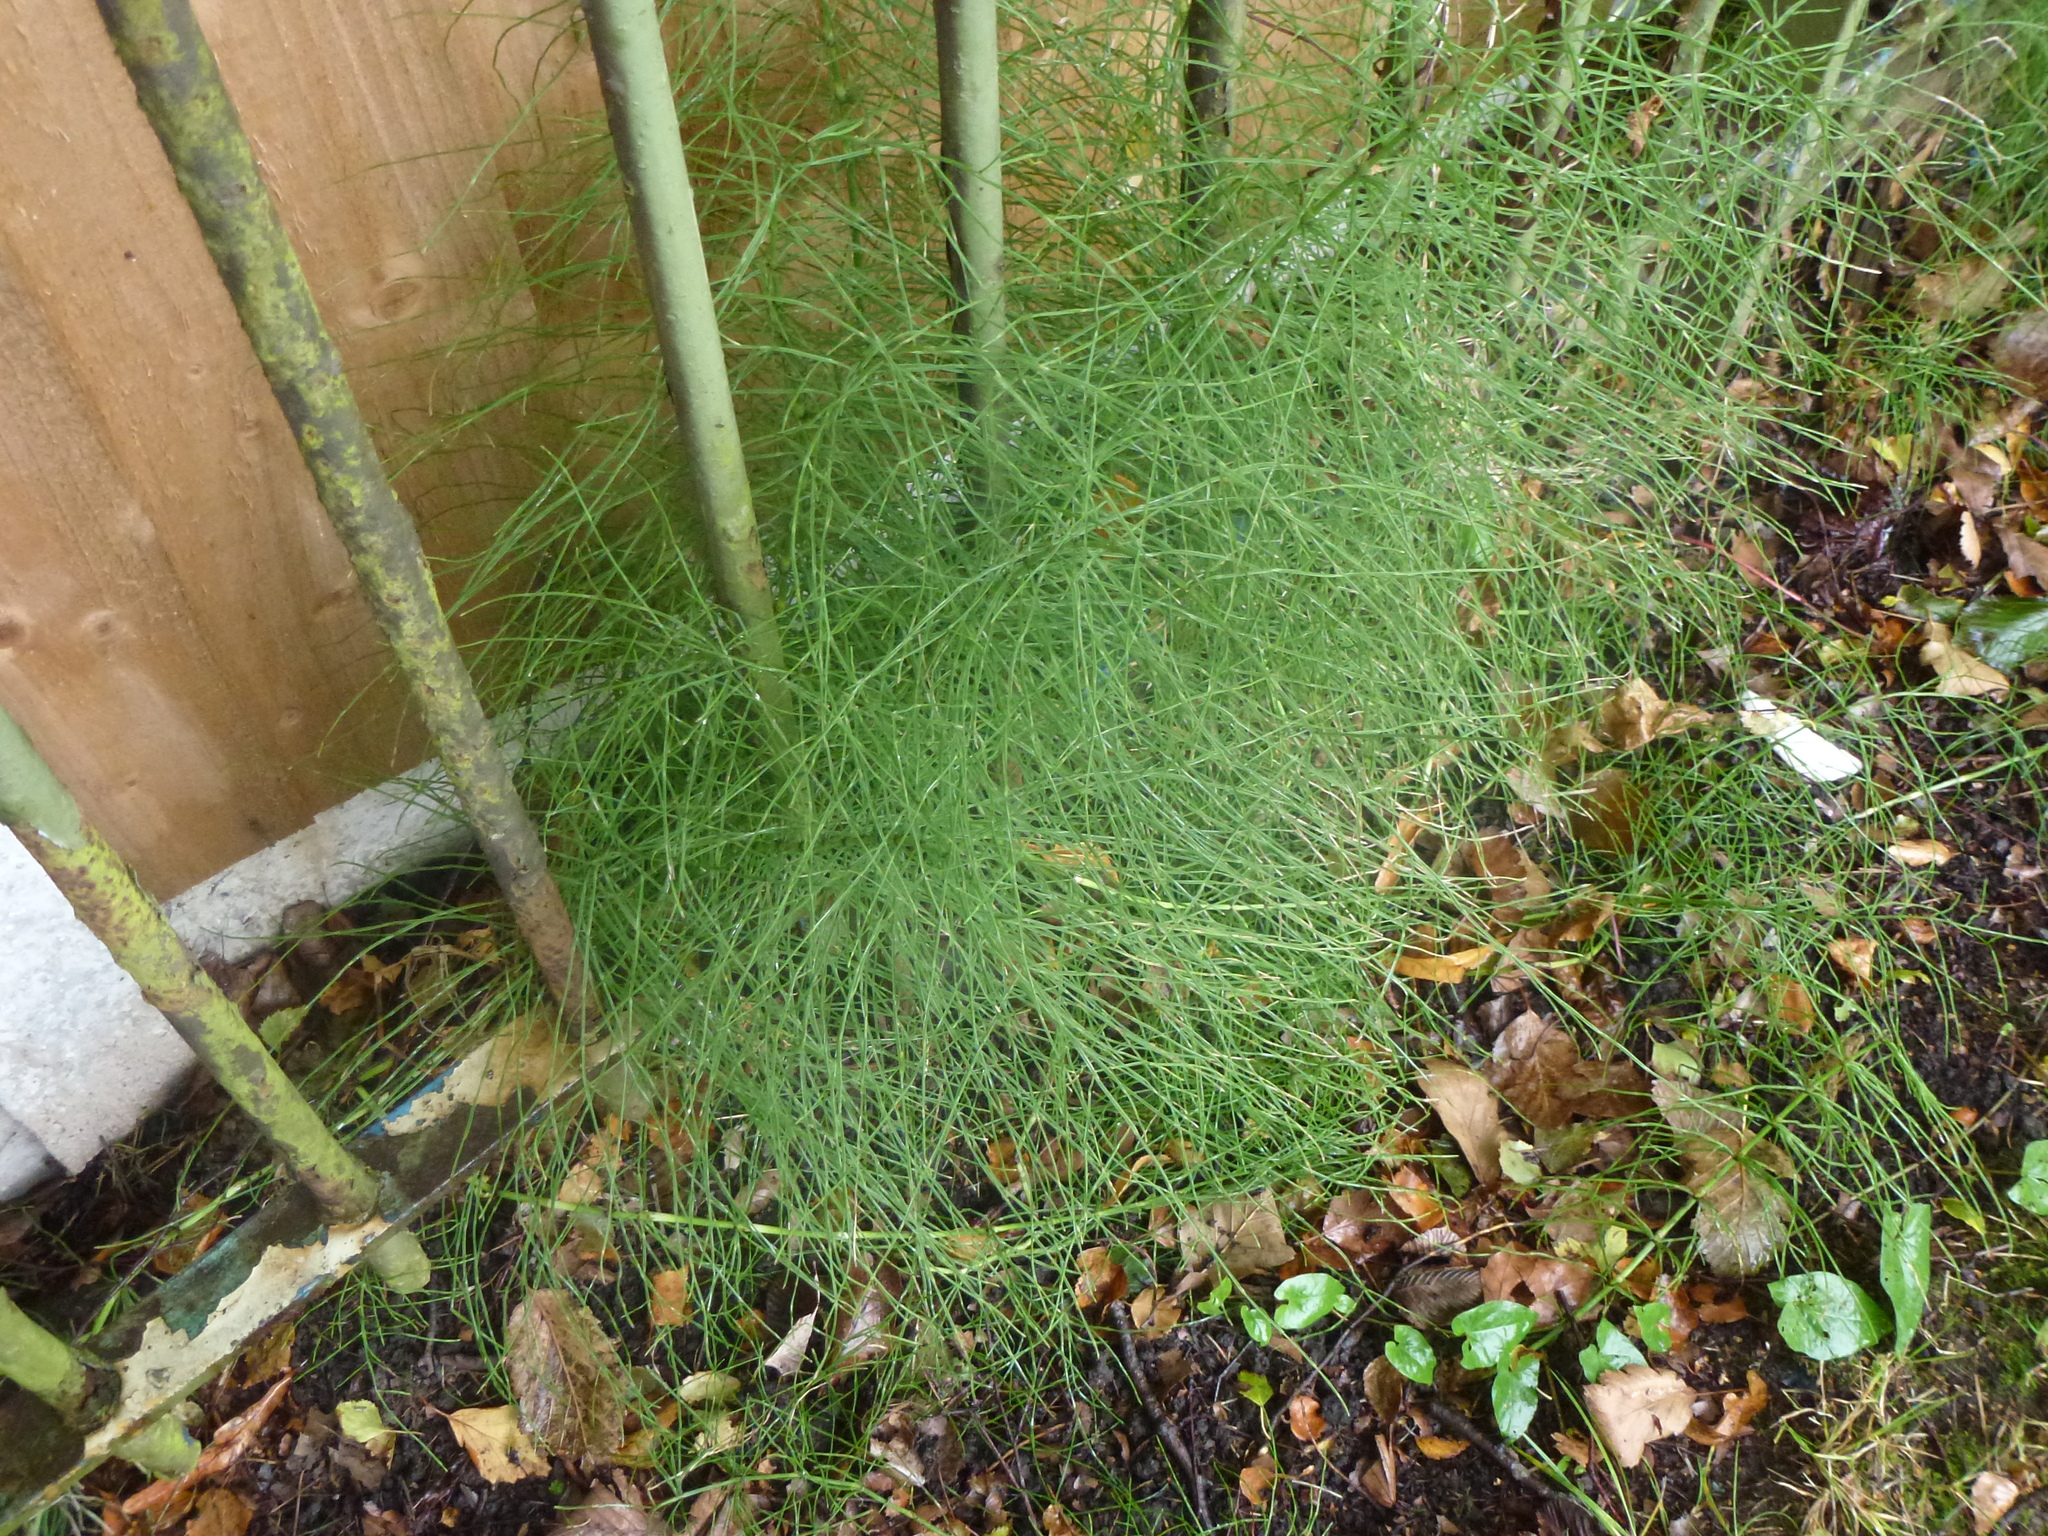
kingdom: Plantae
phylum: Tracheophyta
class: Polypodiopsida
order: Equisetales
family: Equisetaceae
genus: Equisetum
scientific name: Equisetum arvense
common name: Field horsetail
